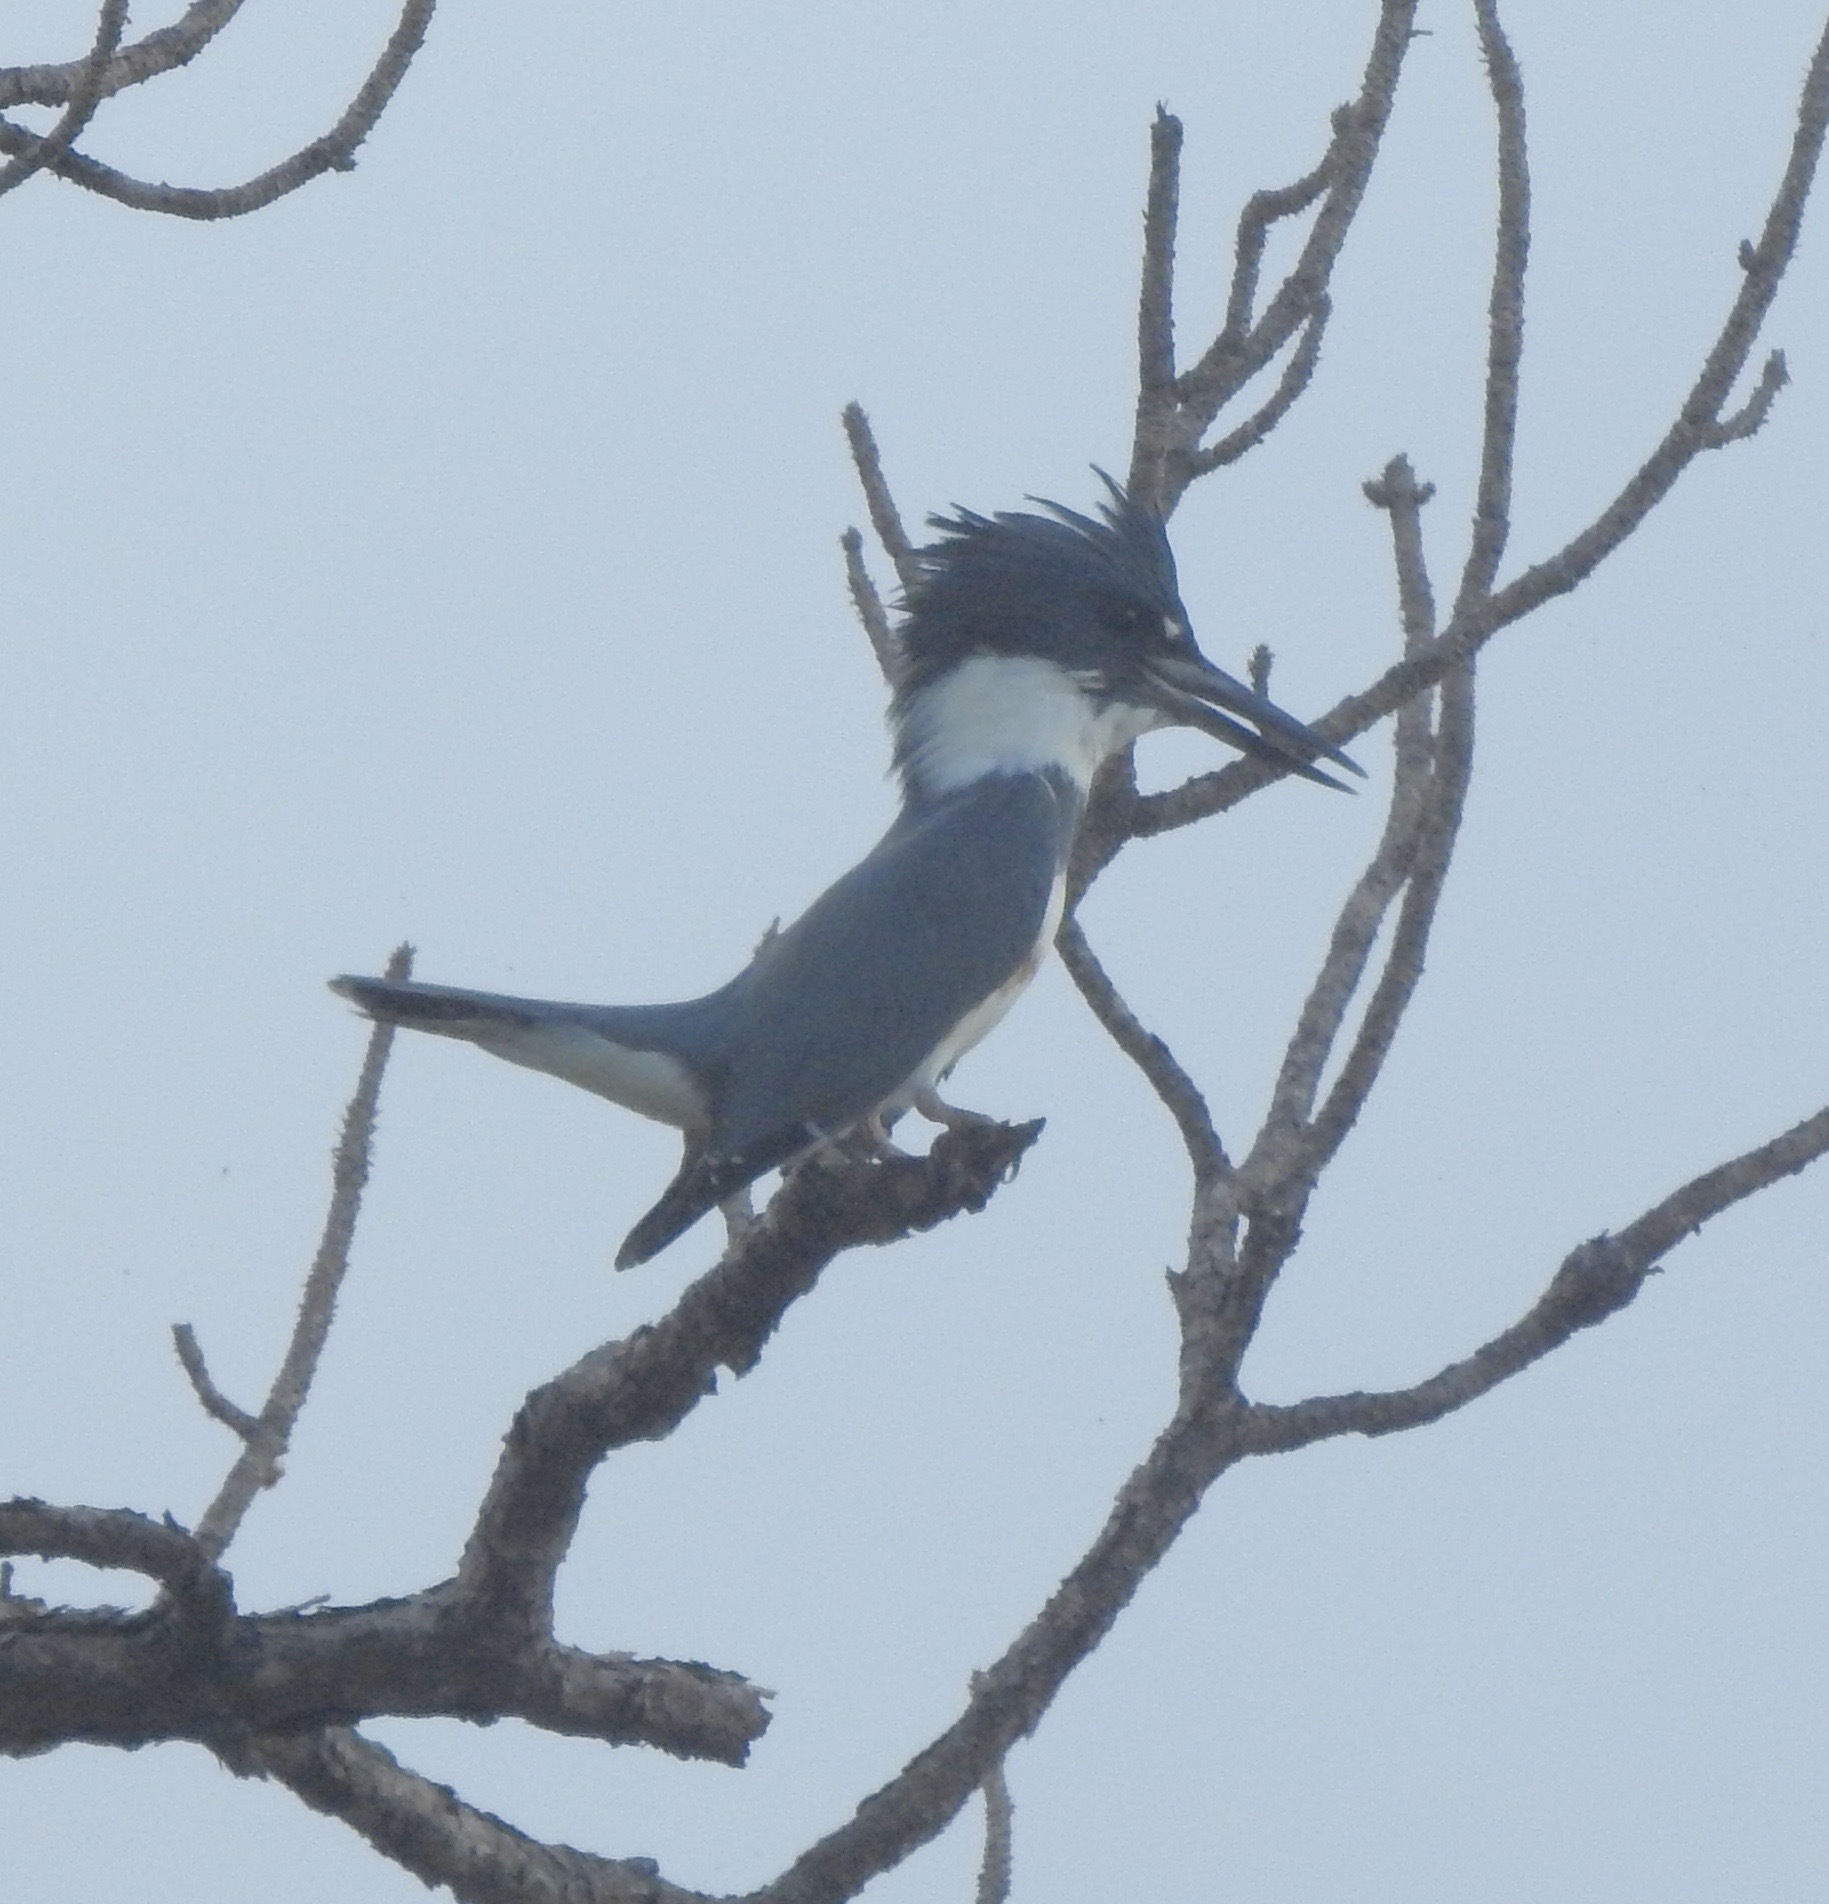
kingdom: Animalia
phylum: Chordata
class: Aves
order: Coraciiformes
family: Alcedinidae
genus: Megaceryle
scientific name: Megaceryle alcyon
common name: Belted kingfisher
